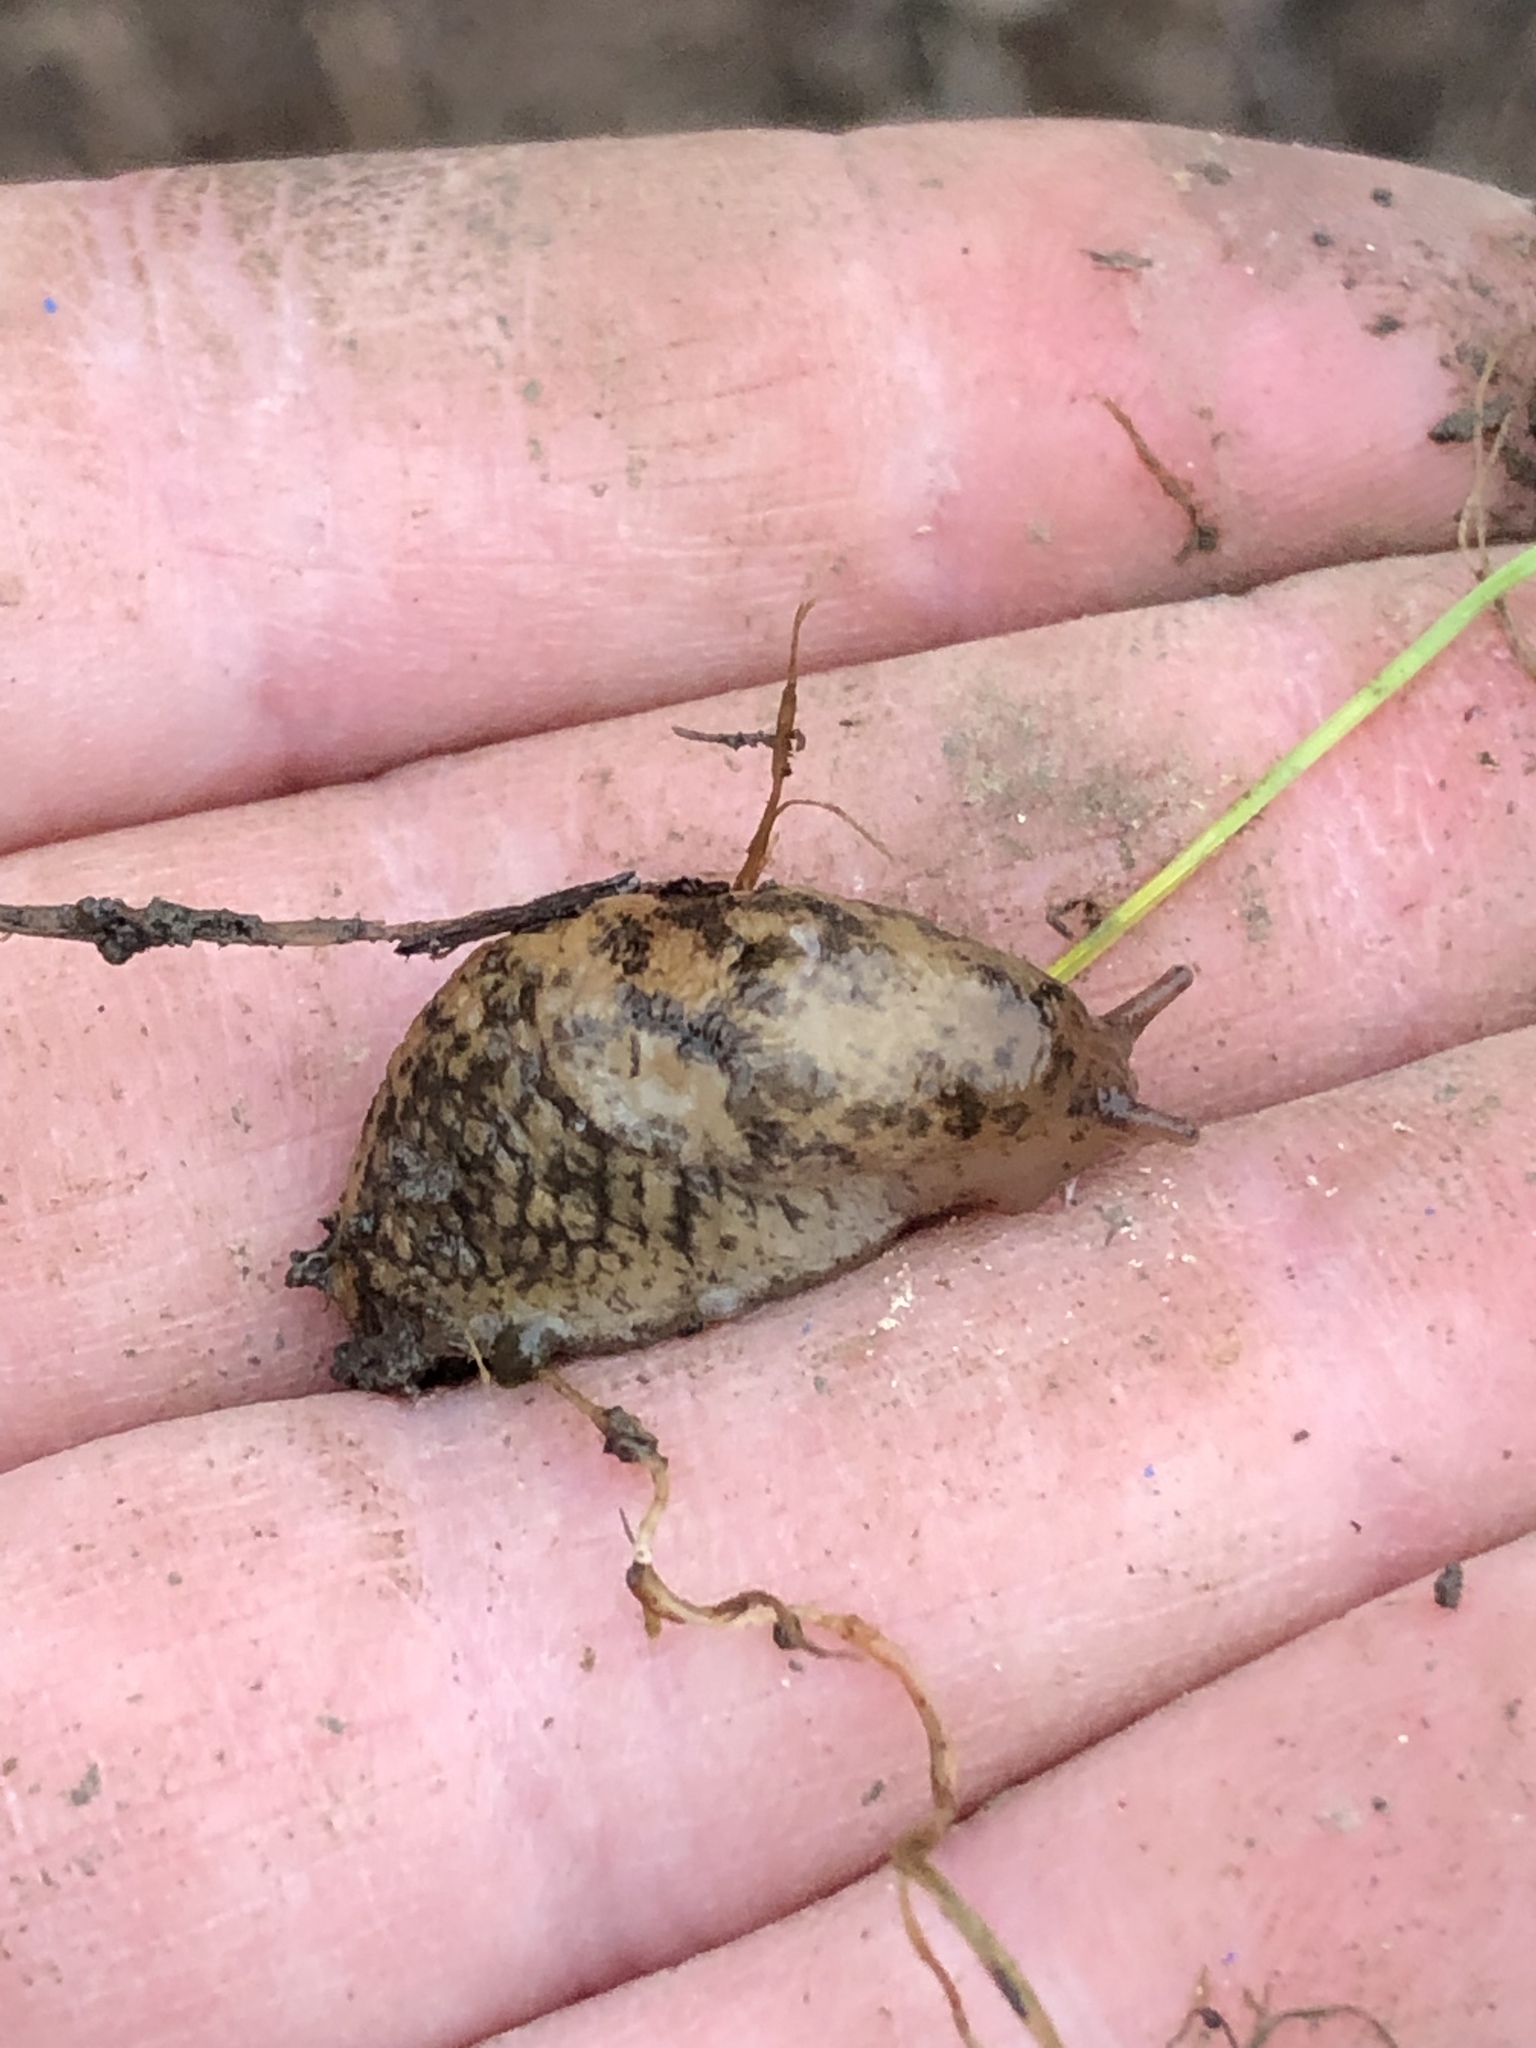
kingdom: Animalia
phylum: Mollusca
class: Gastropoda
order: Stylommatophora
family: Agriolimacidae
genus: Deroceras
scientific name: Deroceras reticulatum
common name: Gray field slug
